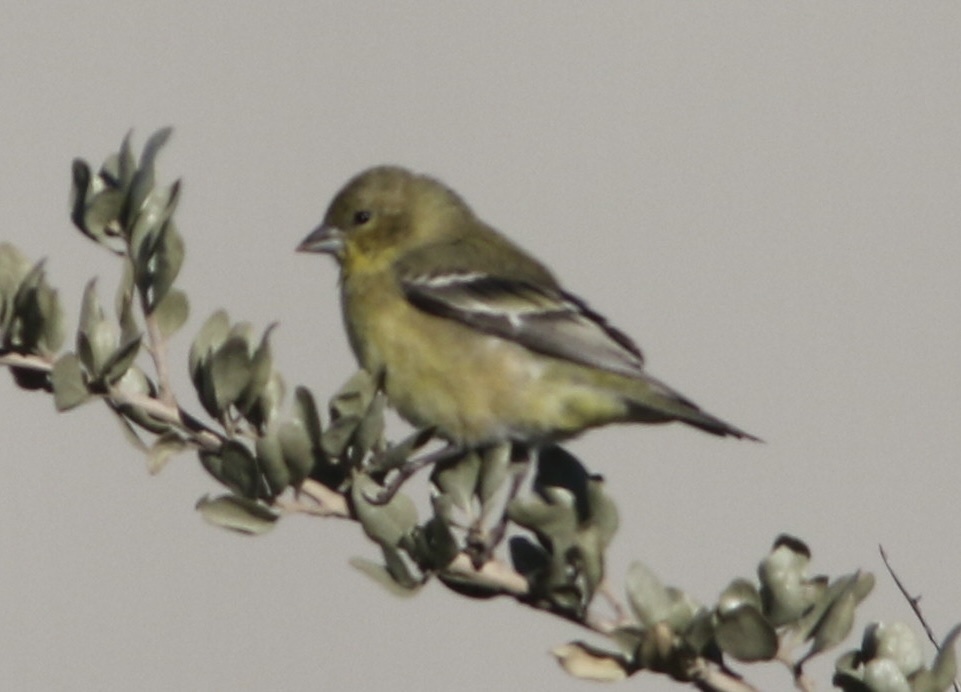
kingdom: Animalia
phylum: Chordata
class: Aves
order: Passeriformes
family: Fringillidae
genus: Spinus
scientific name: Spinus psaltria
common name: Lesser goldfinch
